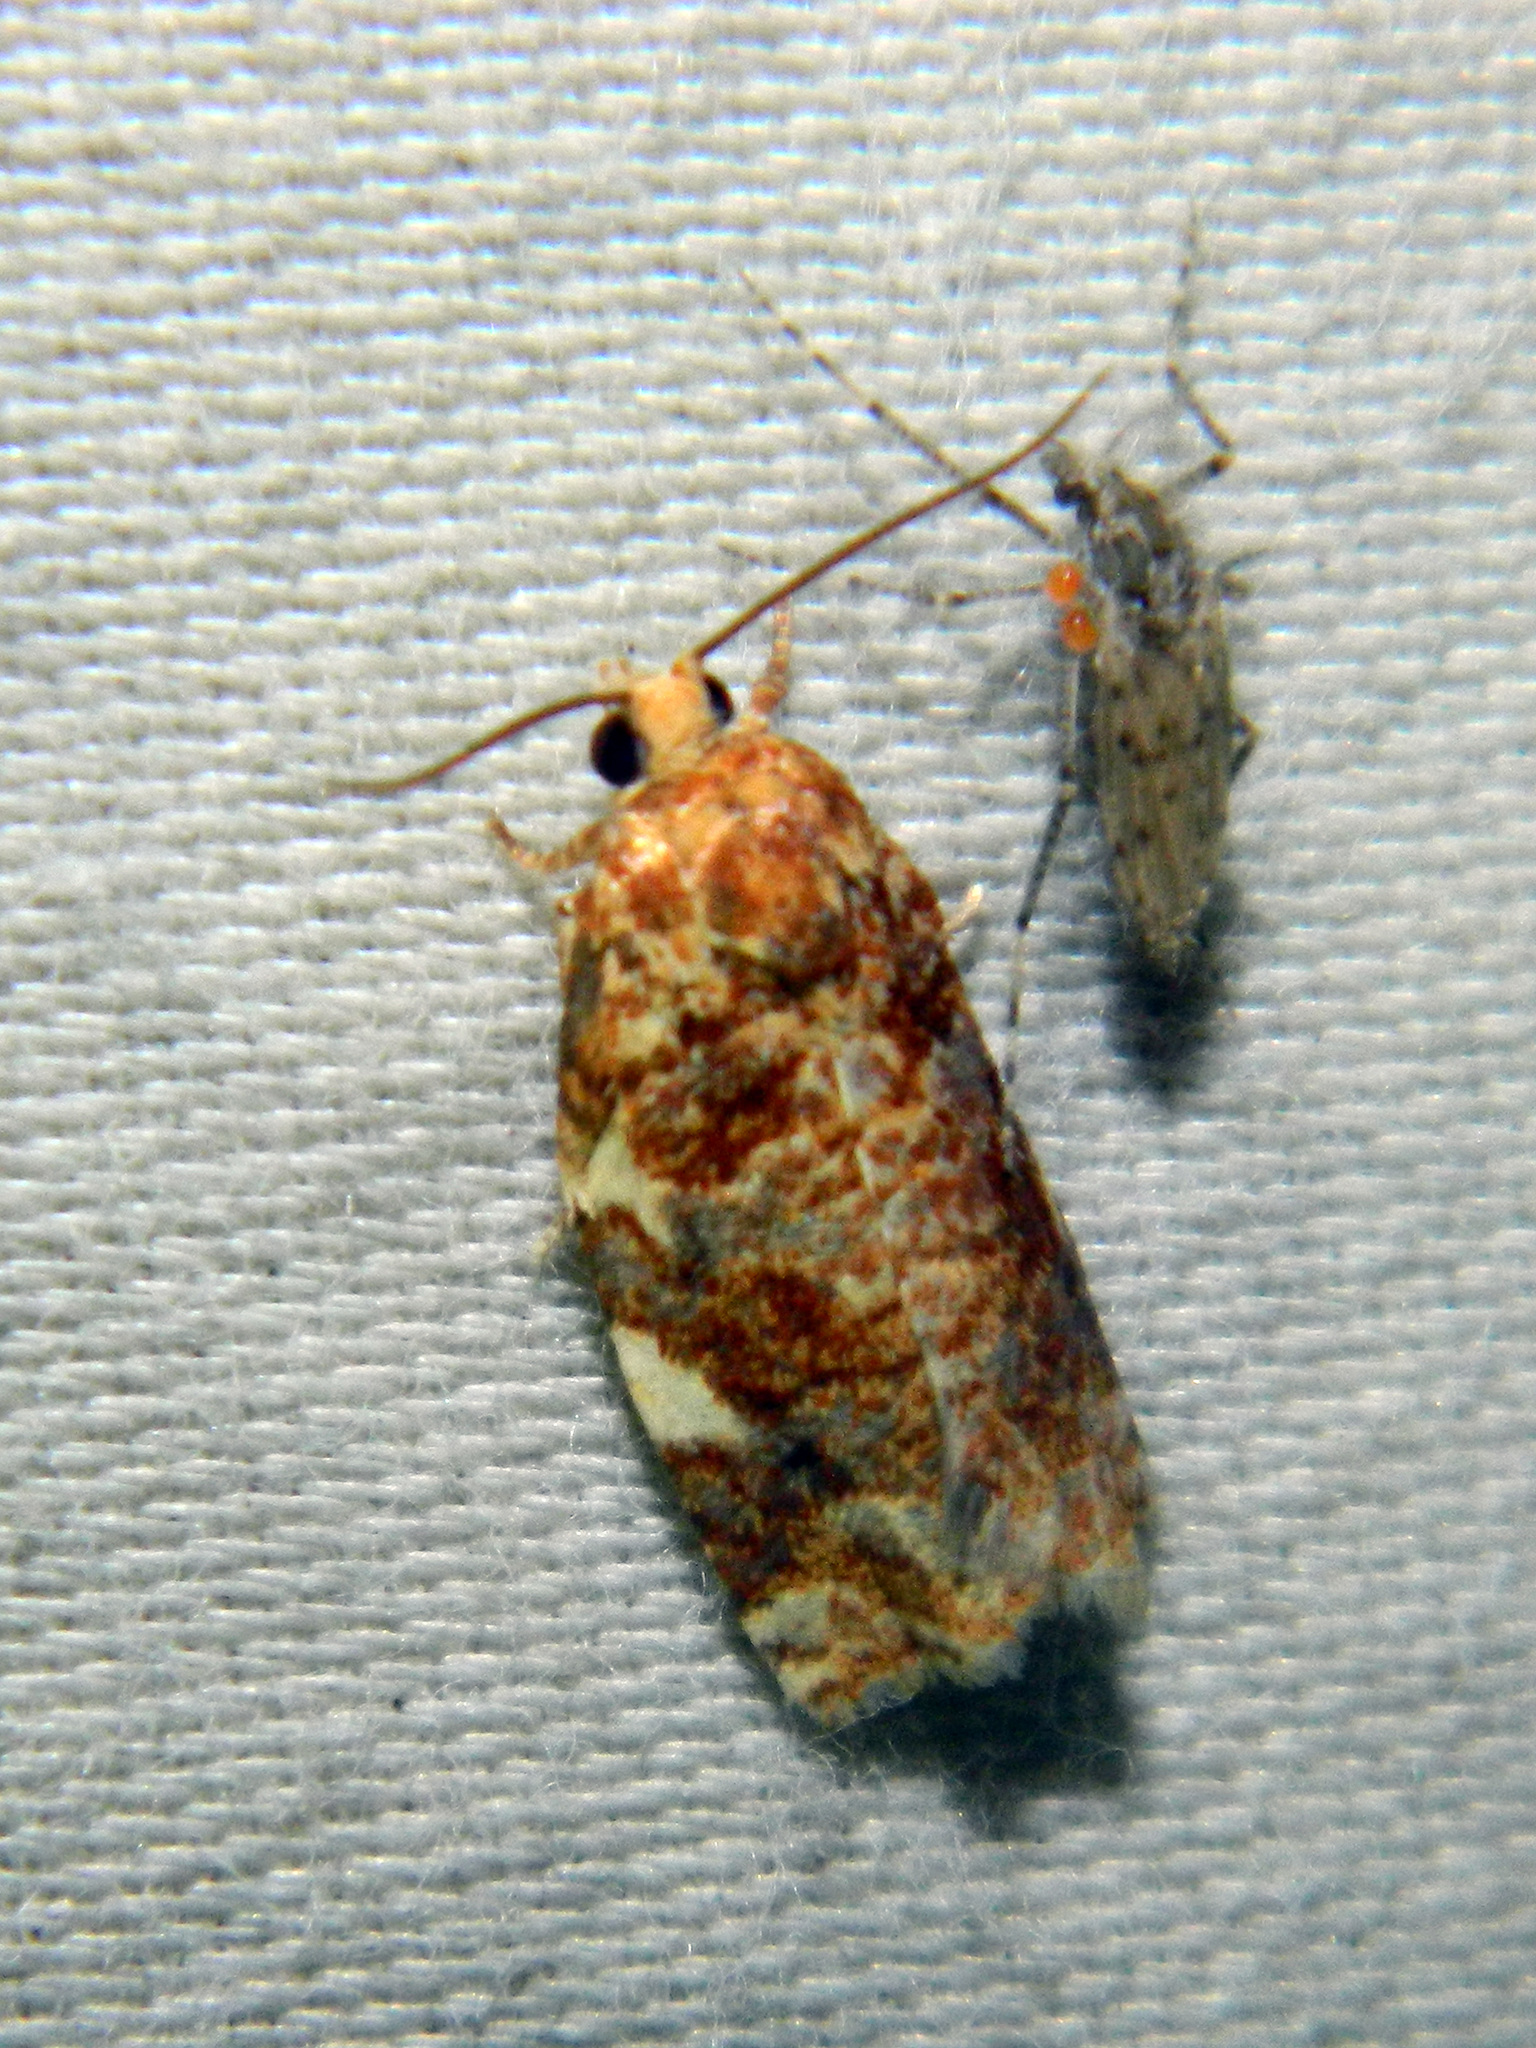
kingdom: Animalia
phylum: Arthropoda
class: Insecta
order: Lepidoptera
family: Tortricidae
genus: Archips
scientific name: Archips argyrospila
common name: Fruit-tree leafroller moth
